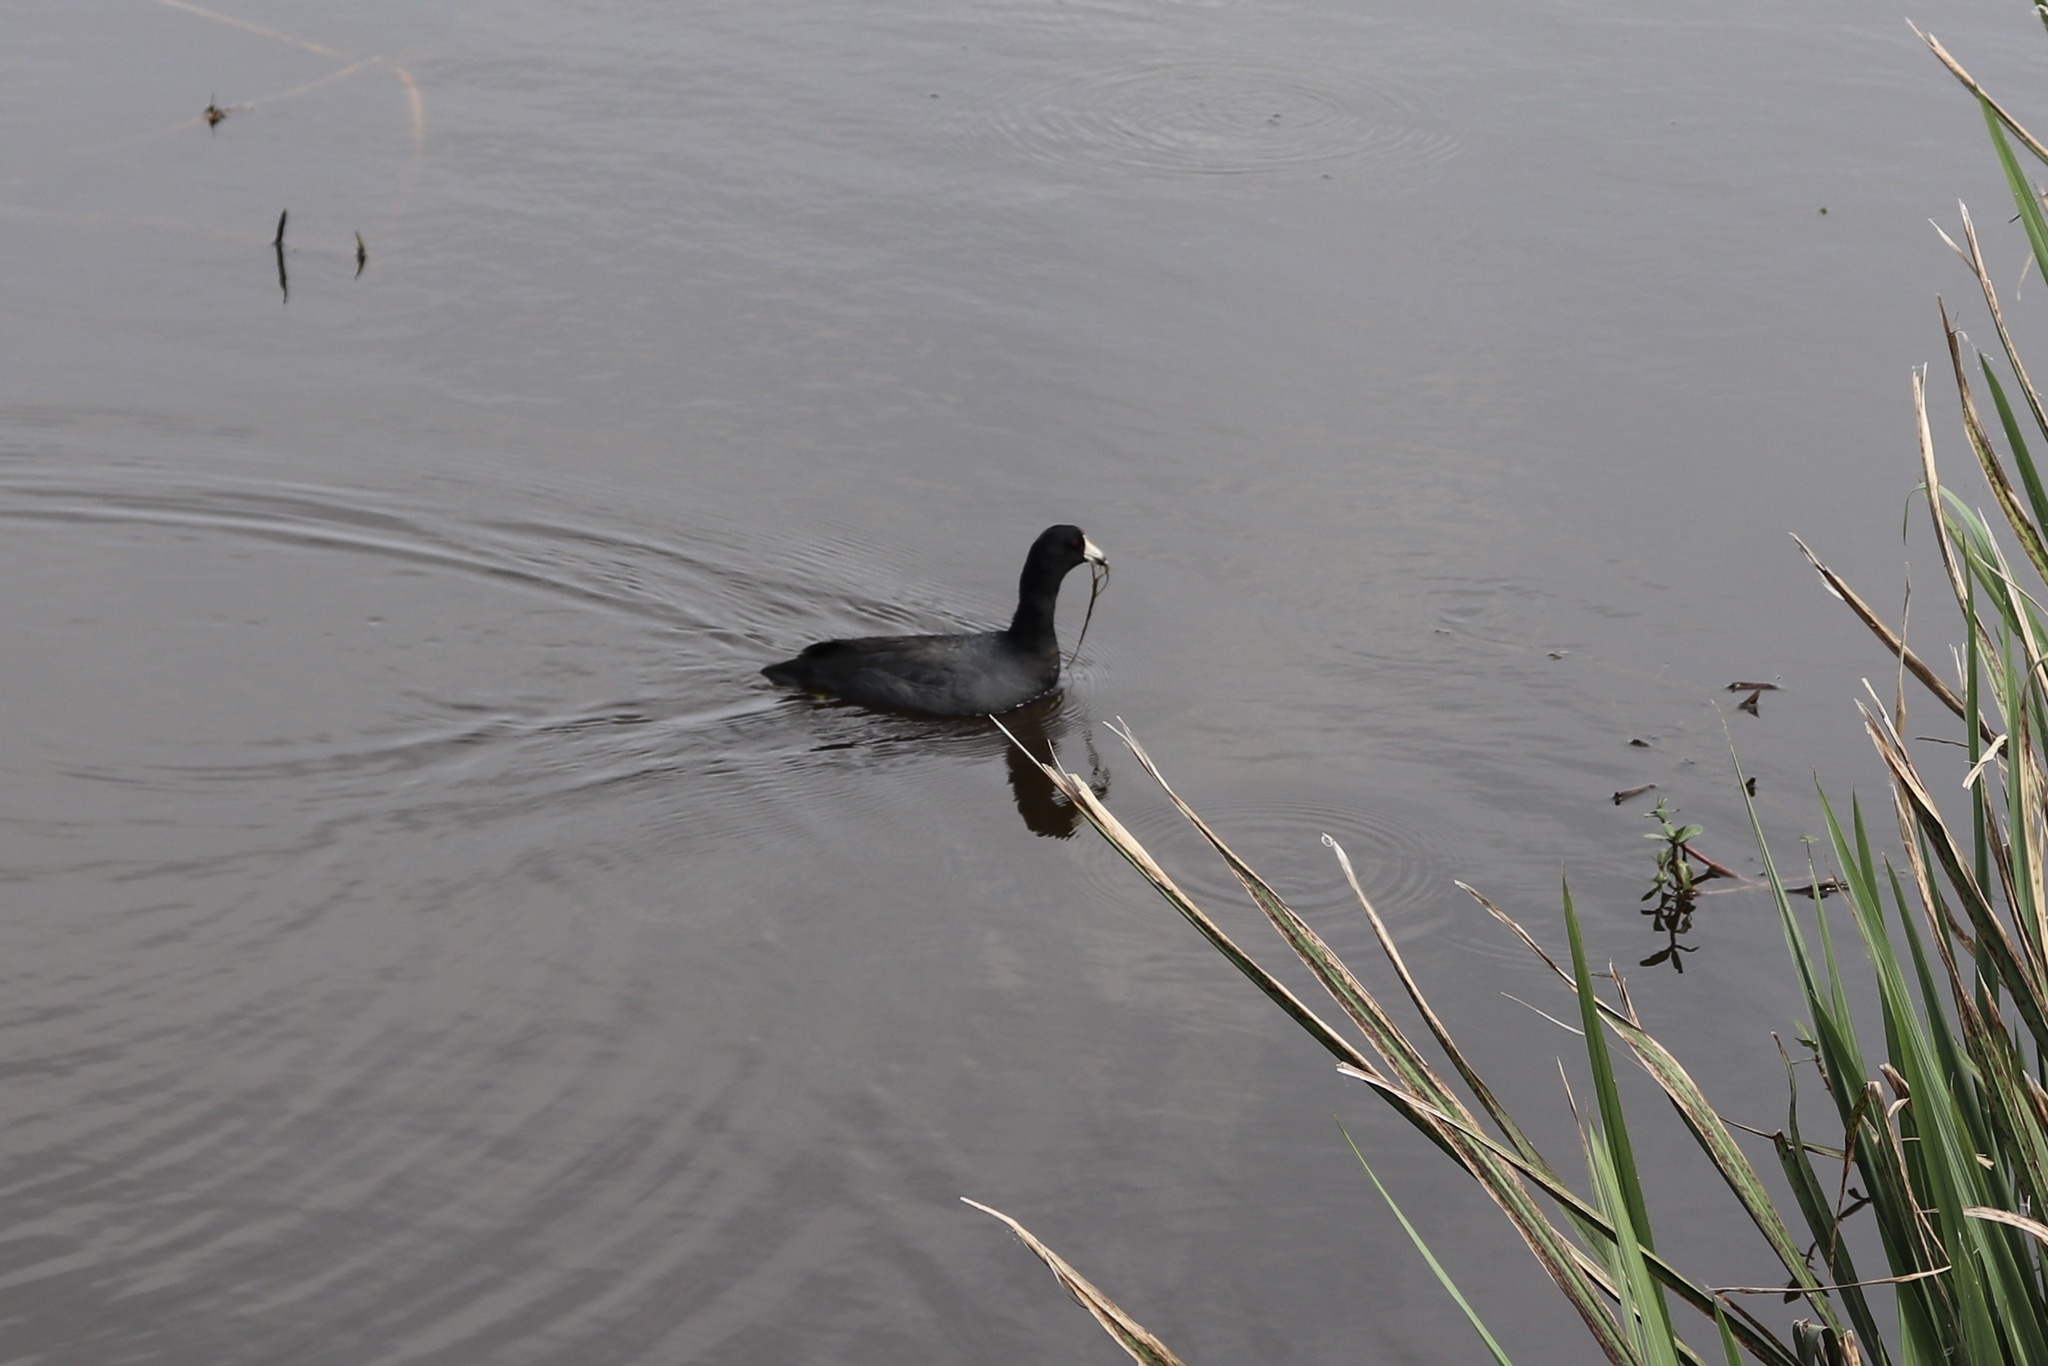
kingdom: Animalia
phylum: Chordata
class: Aves
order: Gruiformes
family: Rallidae
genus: Fulica
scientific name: Fulica americana
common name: American coot
